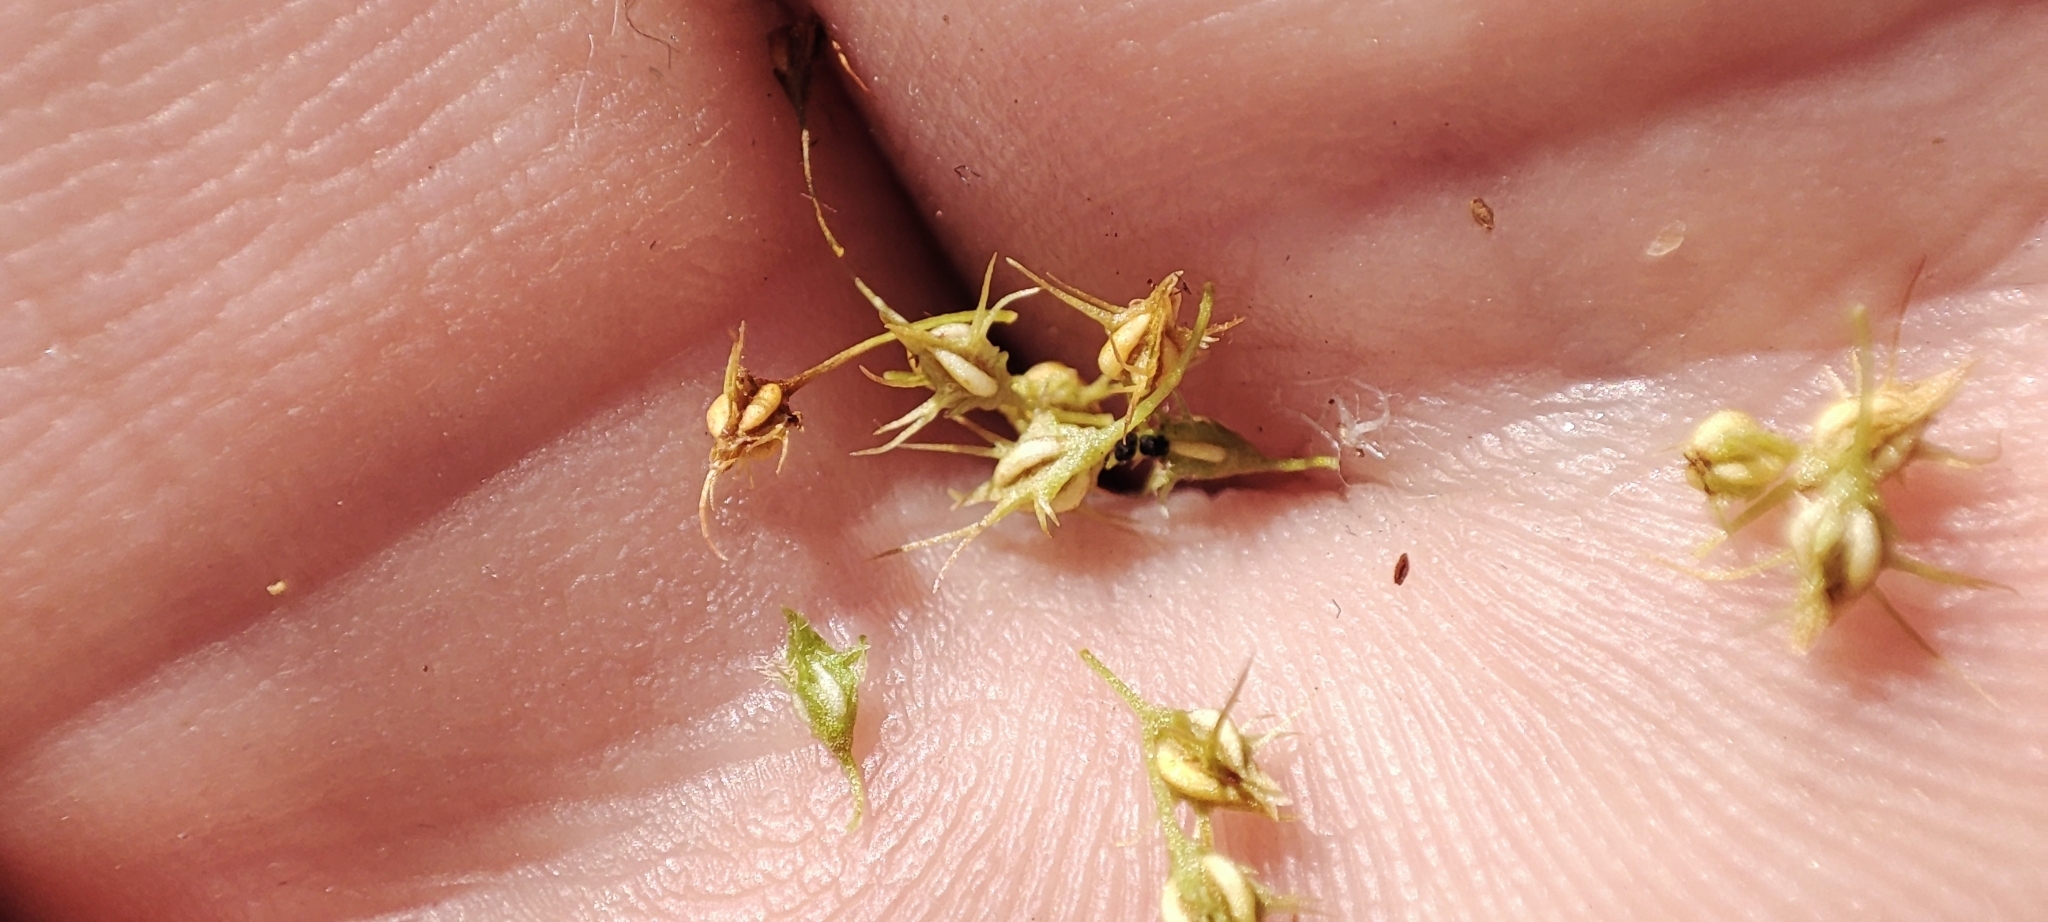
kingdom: Plantae
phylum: Tracheophyta
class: Magnoliopsida
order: Caryophyllales
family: Polygonaceae
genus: Rumex
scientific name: Rumex maritimus
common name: Golden dock
